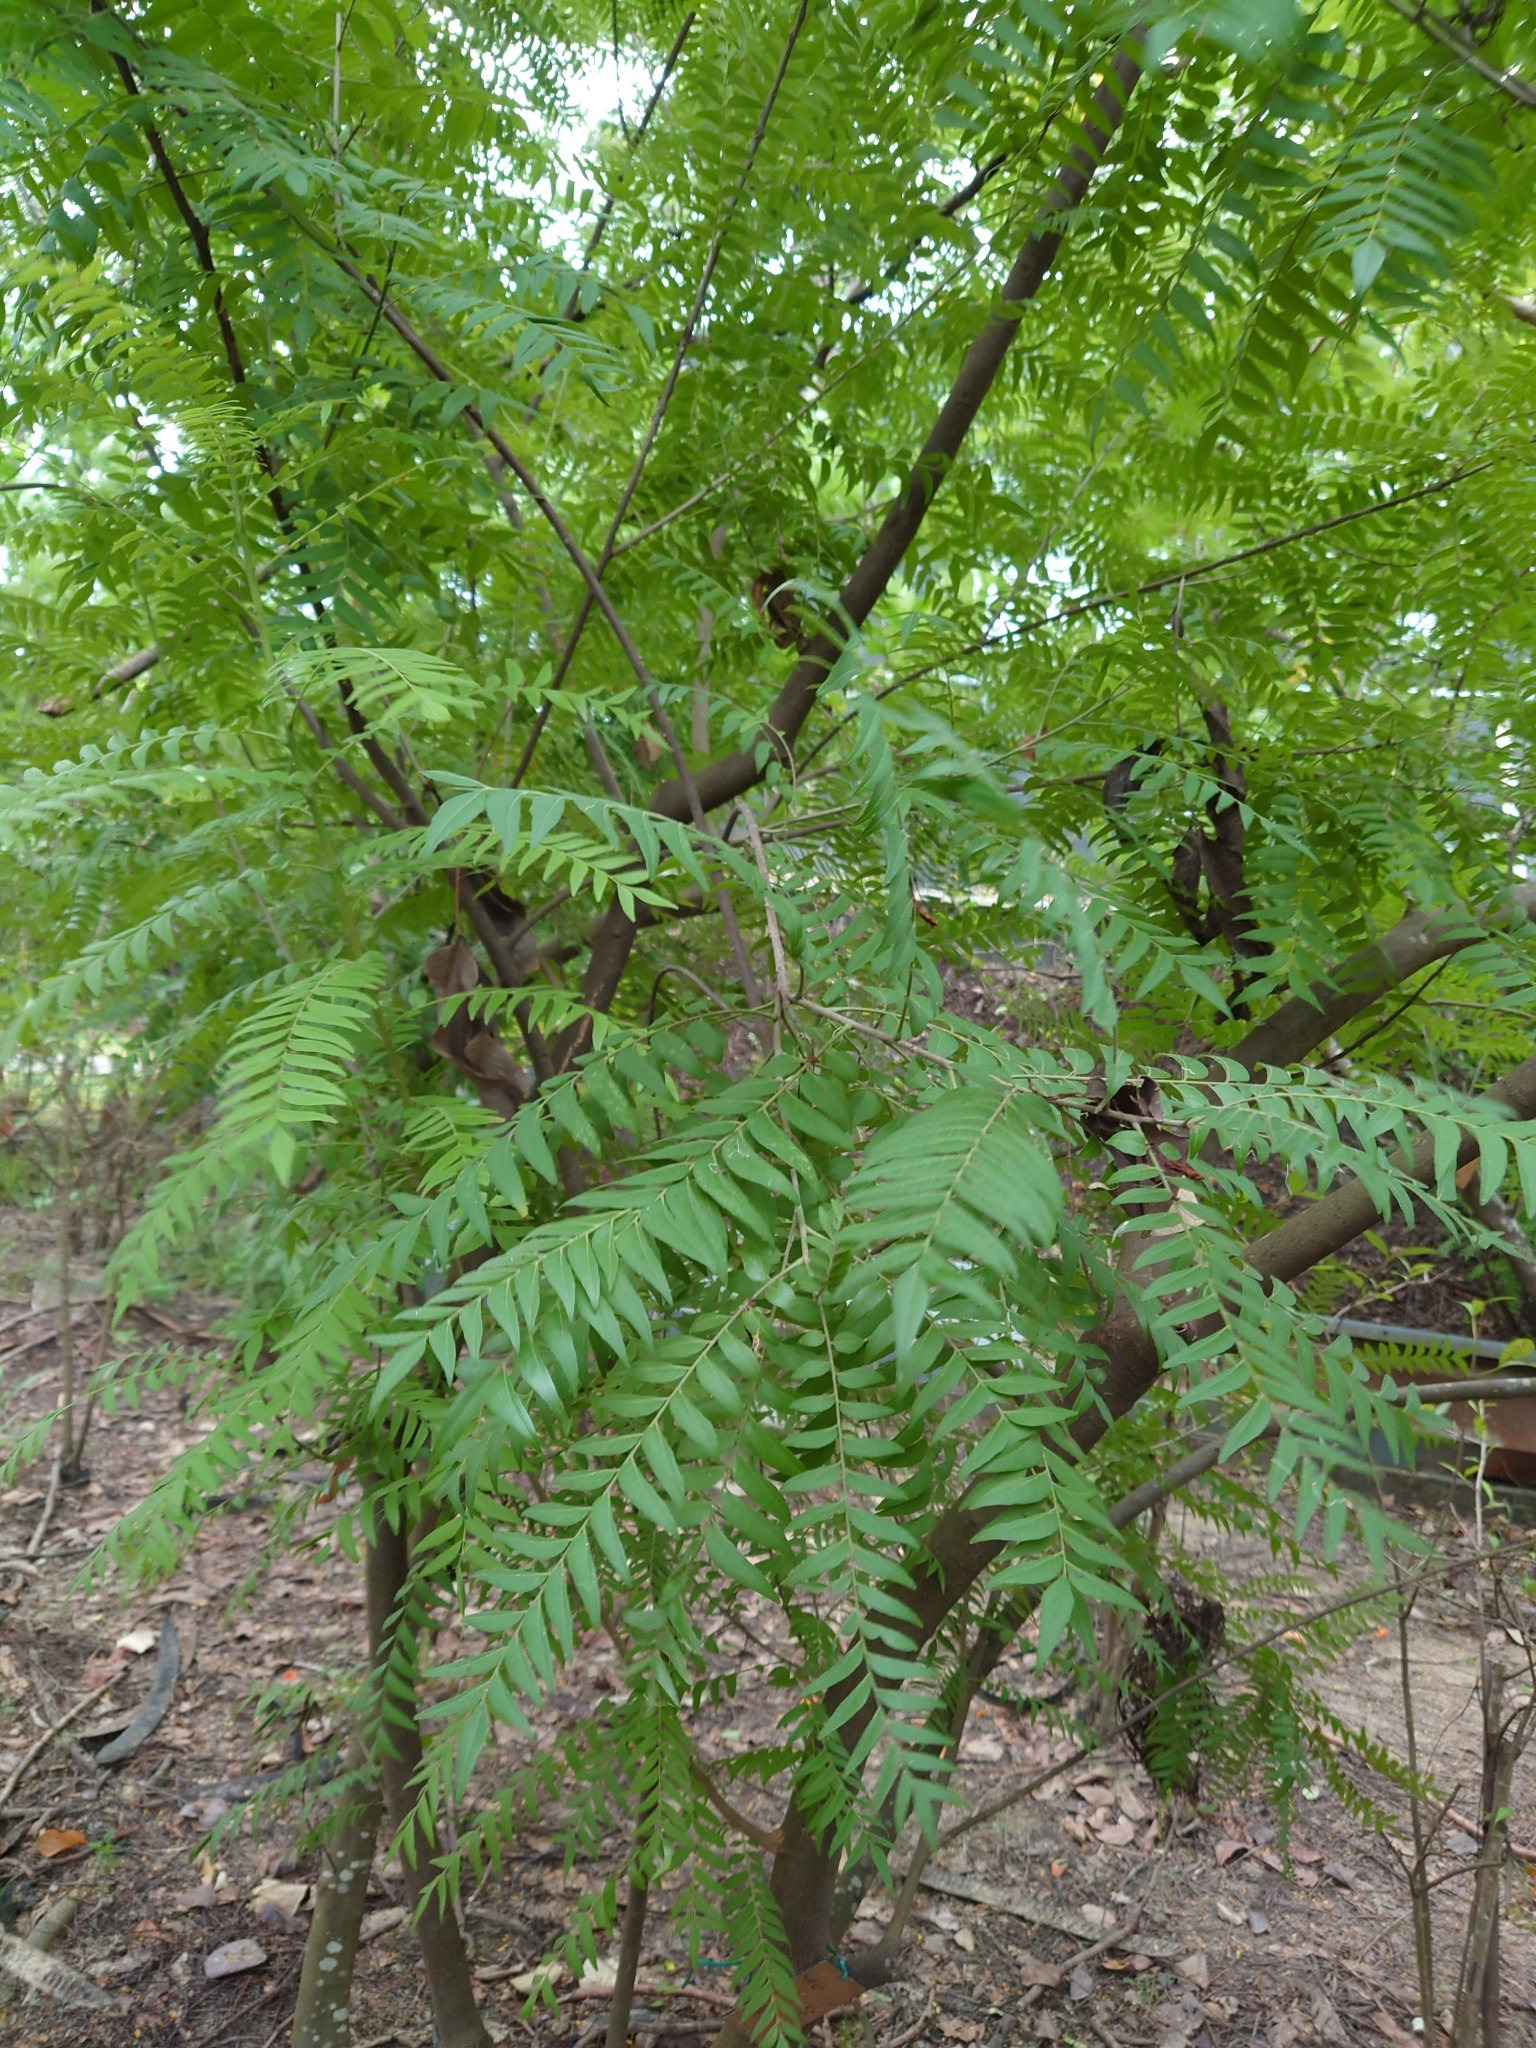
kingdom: Plantae
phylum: Tracheophyta
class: Magnoliopsida
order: Sapindales
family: Rutaceae
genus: Clausena
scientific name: Clausena excavata
